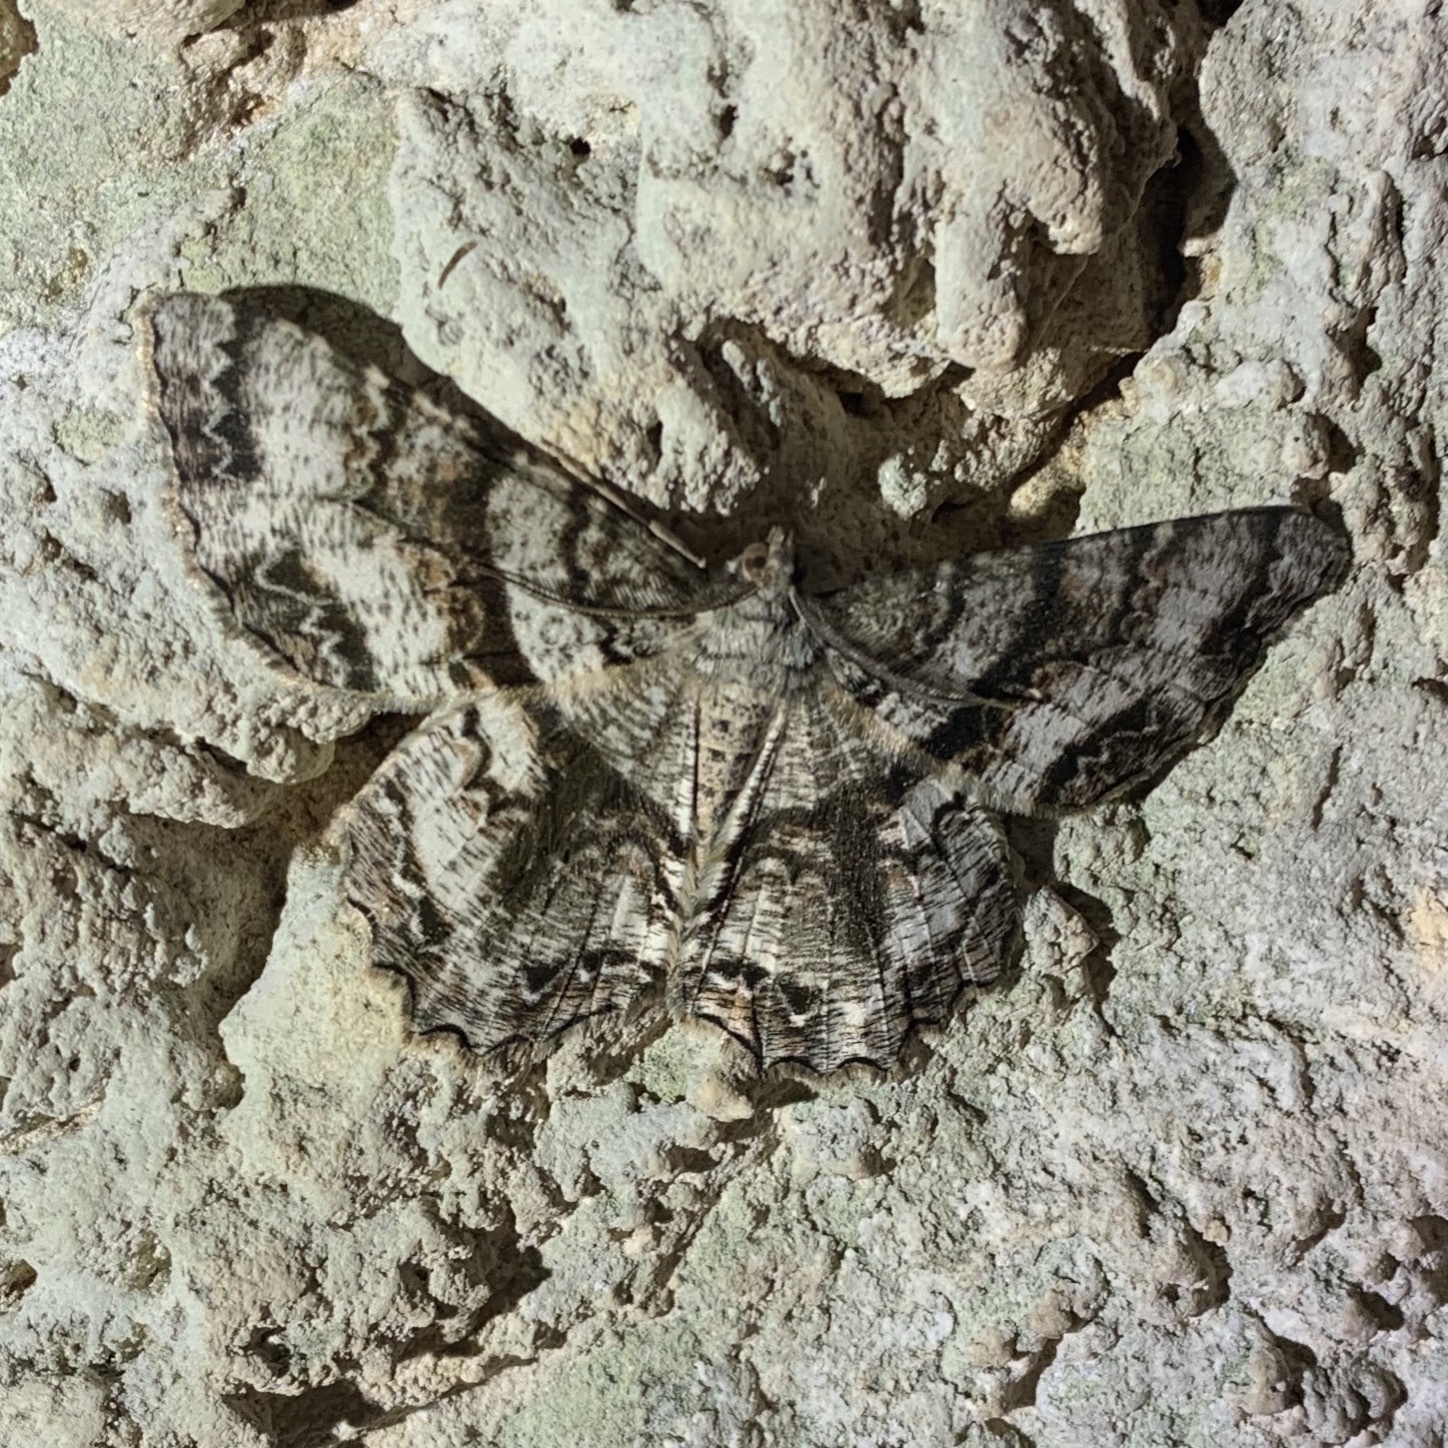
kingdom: Animalia
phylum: Arthropoda
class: Insecta
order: Lepidoptera
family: Geometridae
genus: Epimecis
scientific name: Epimecis hortaria
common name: Tulip-tree beauty
